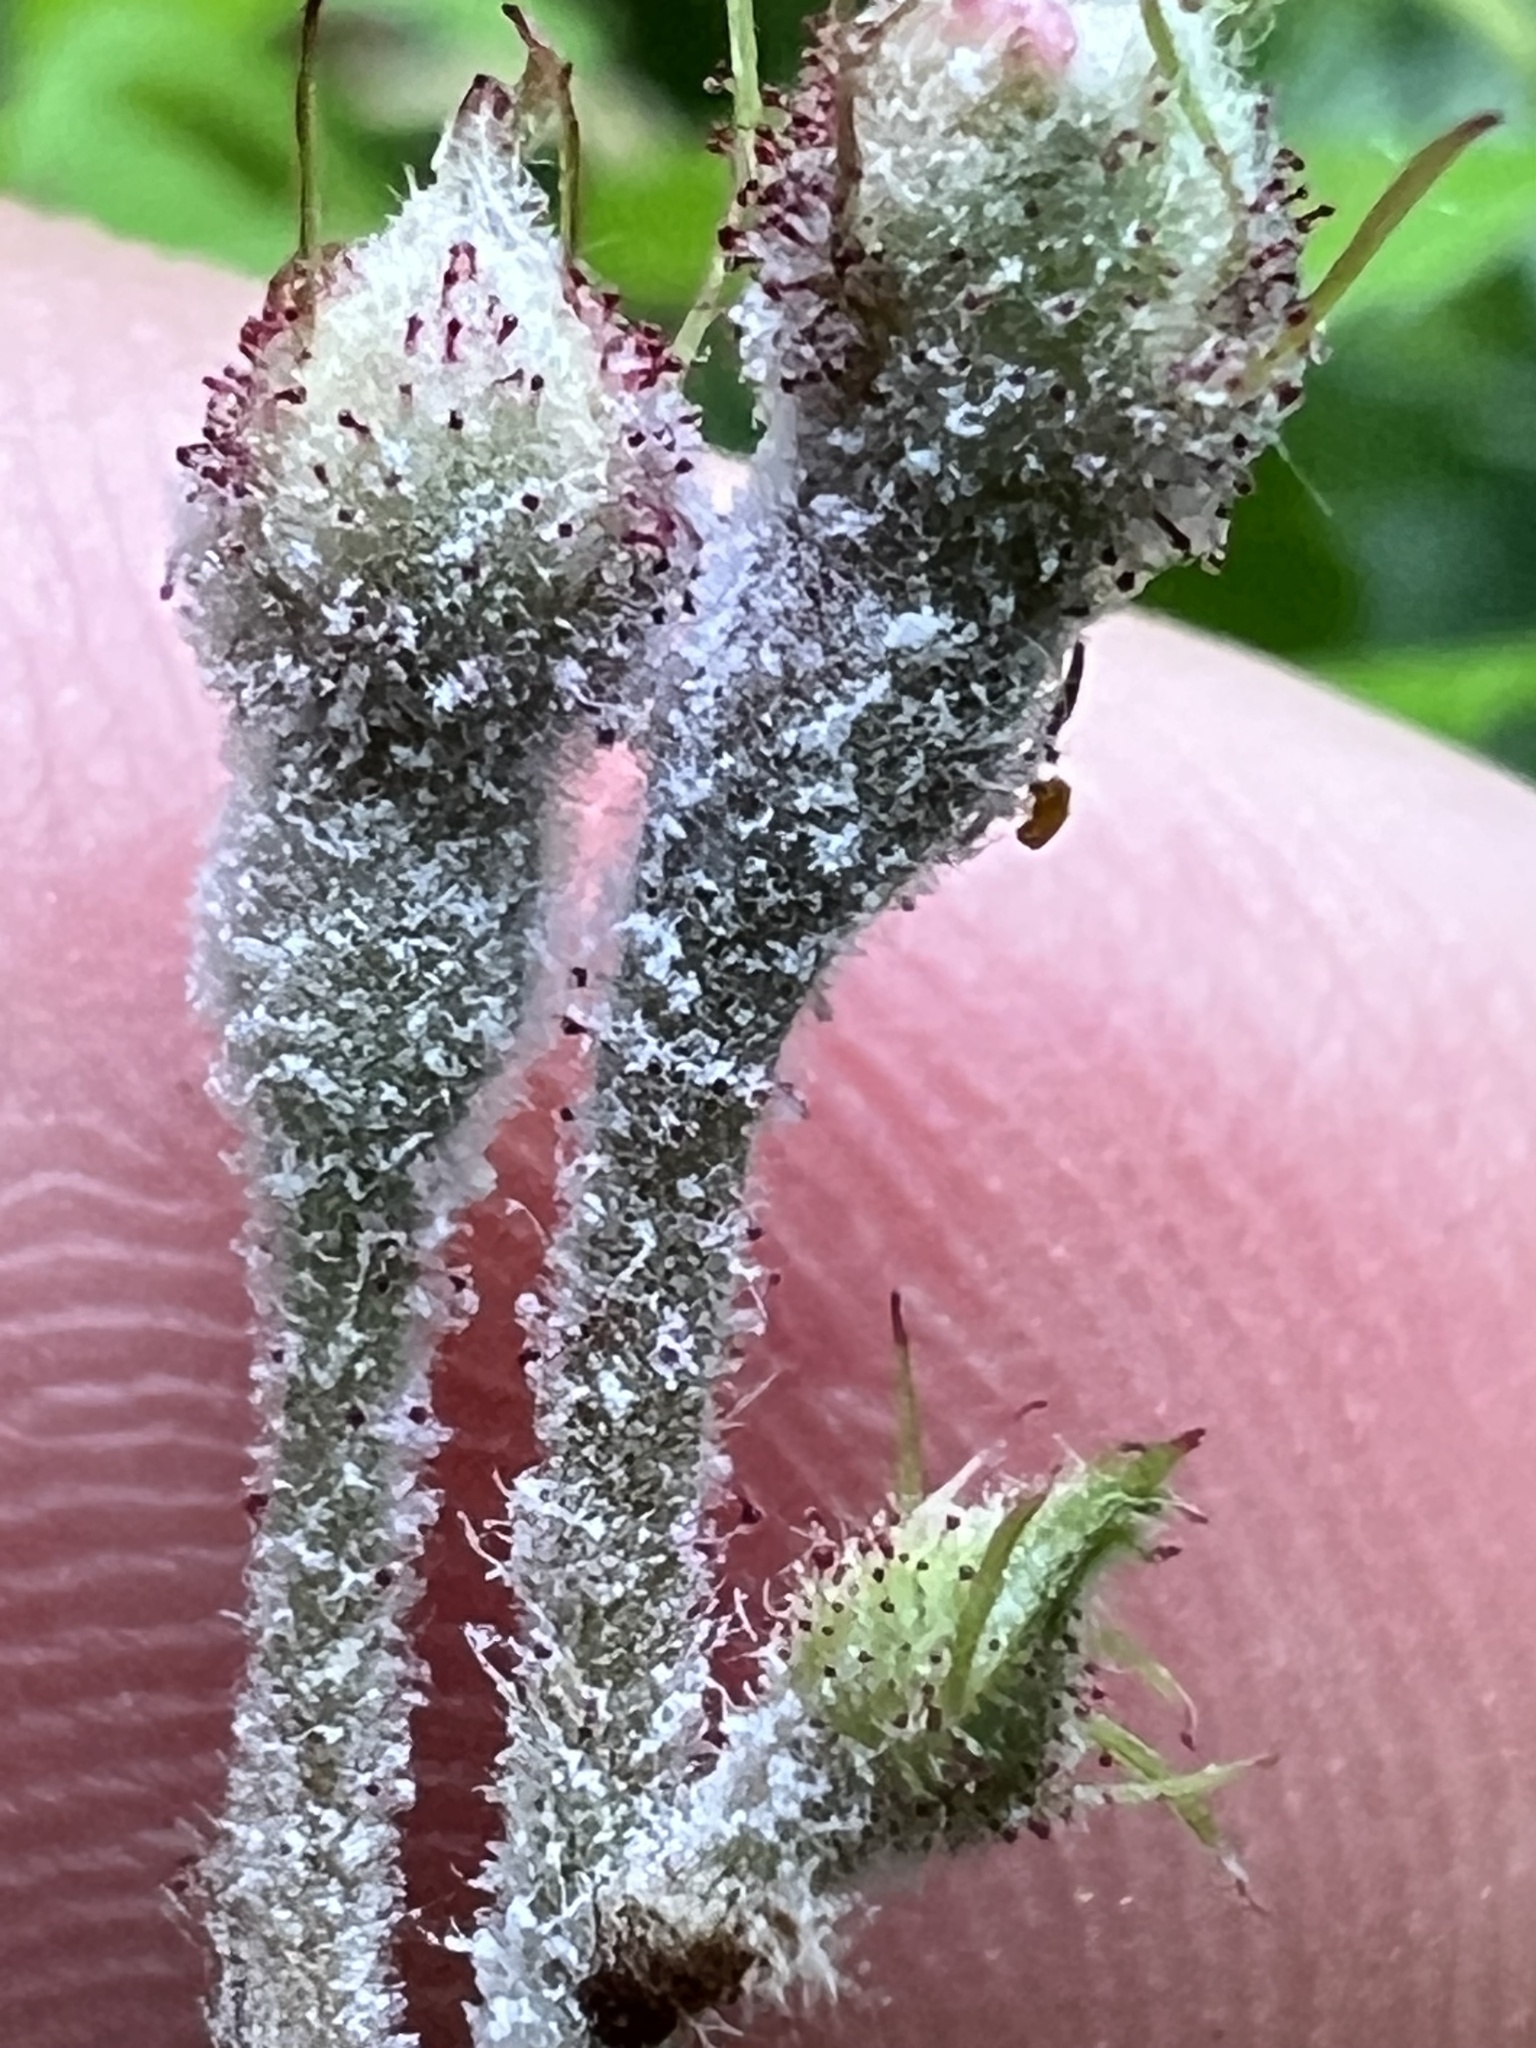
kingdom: Fungi
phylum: Ascomycota
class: Leotiomycetes
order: Helotiales
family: Erysiphaceae
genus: Podosphaera
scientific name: Podosphaera pannosa
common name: Rose mildew
